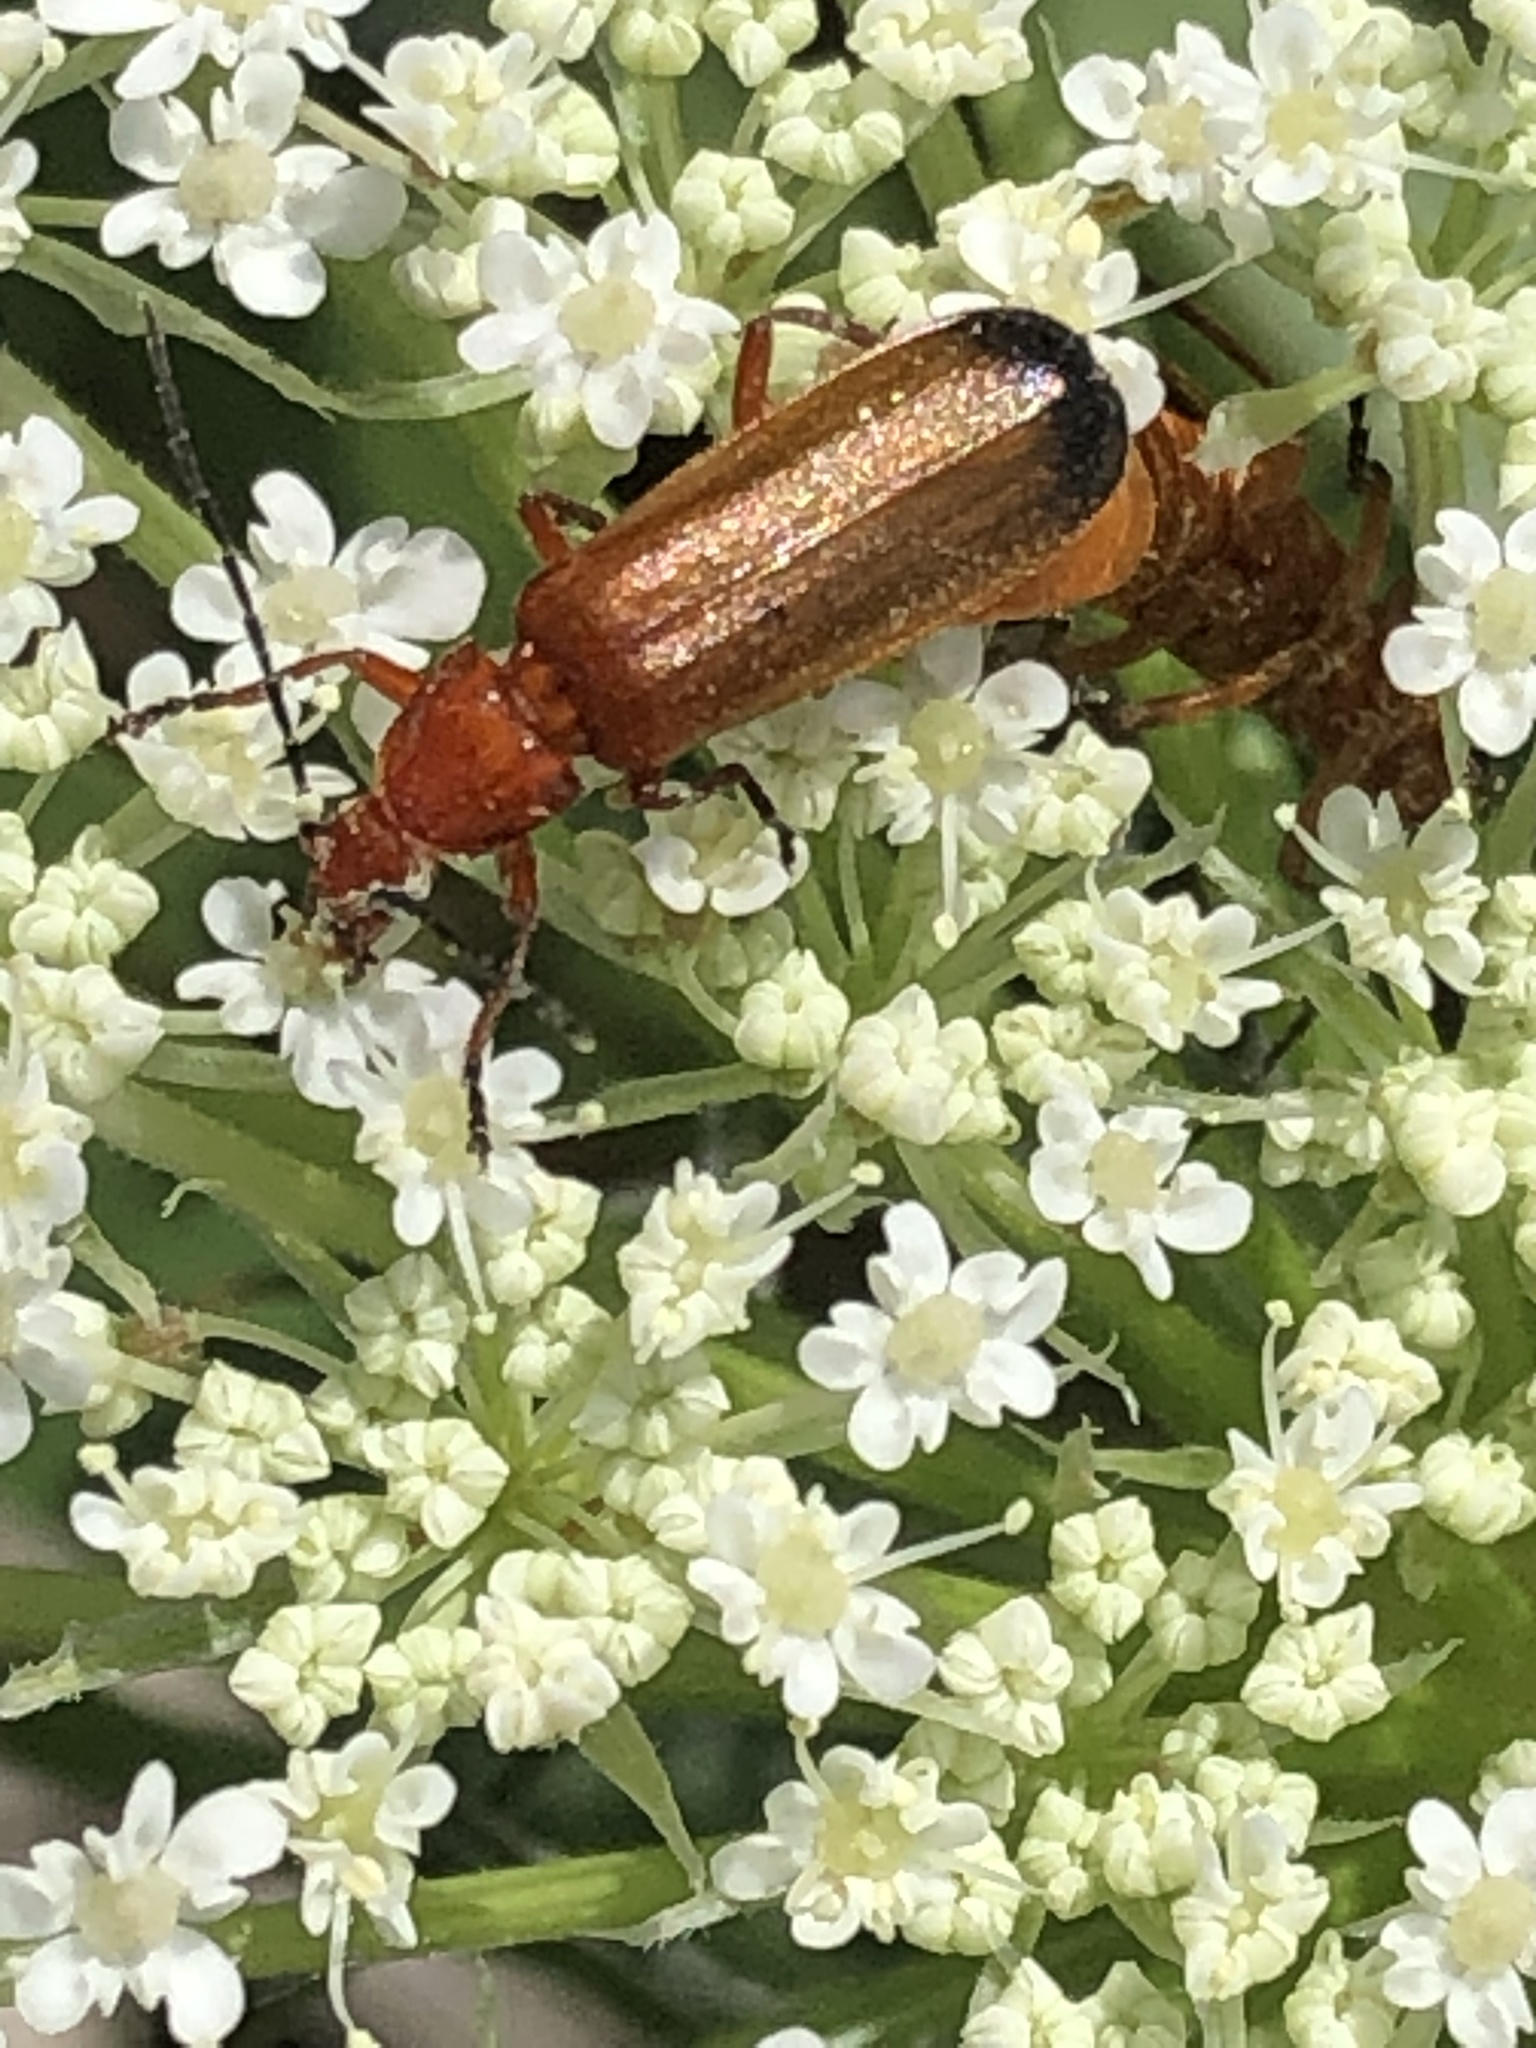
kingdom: Animalia
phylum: Arthropoda
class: Insecta
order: Coleoptera
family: Cantharidae
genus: Rhagonycha
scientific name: Rhagonycha fulva
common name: Common red soldier beetle
